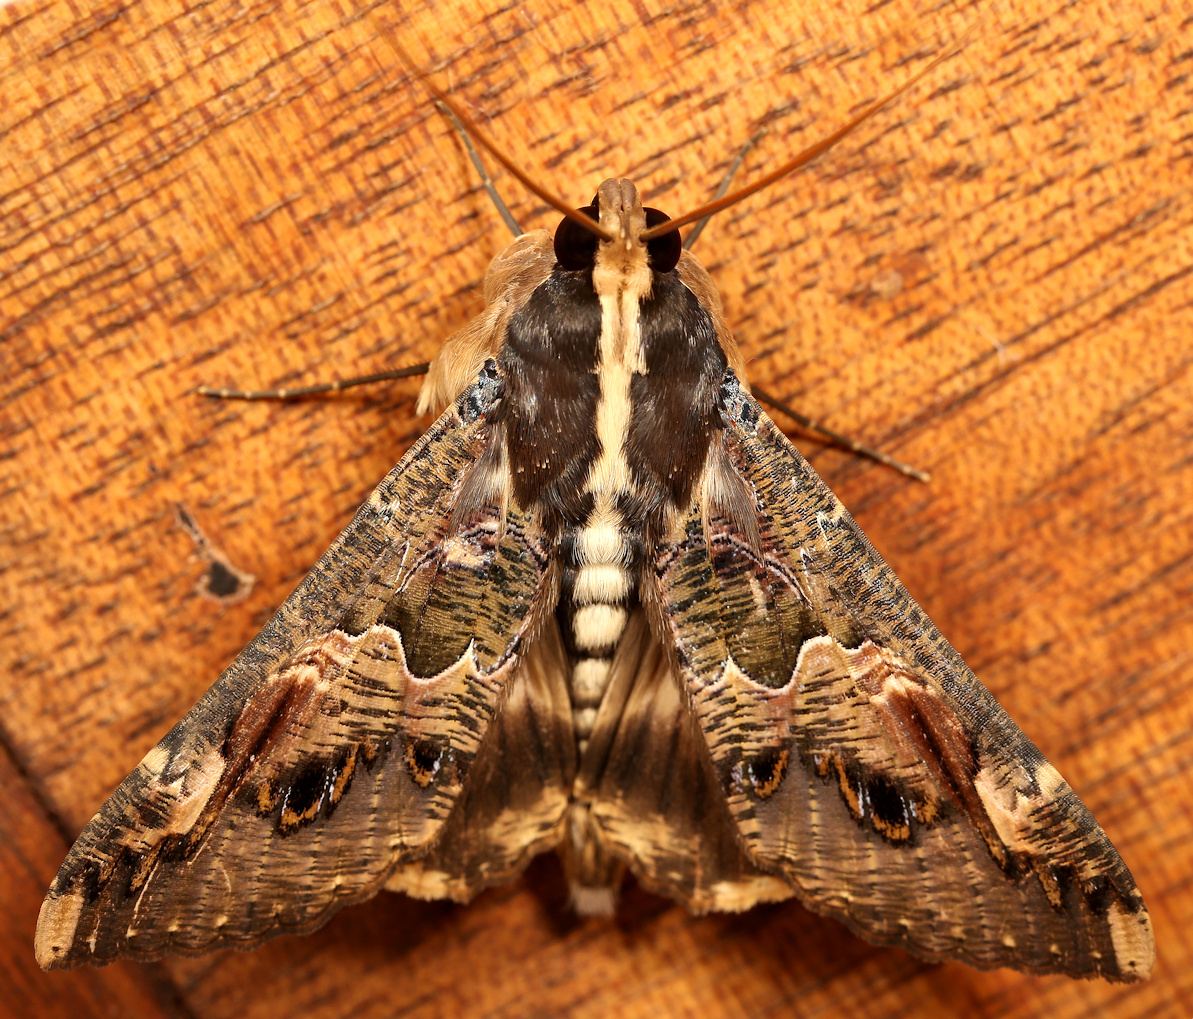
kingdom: Animalia
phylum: Arthropoda
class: Insecta
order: Lepidoptera
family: Erebidae
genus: Sphingomorpha
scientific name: Sphingomorpha chlorea
